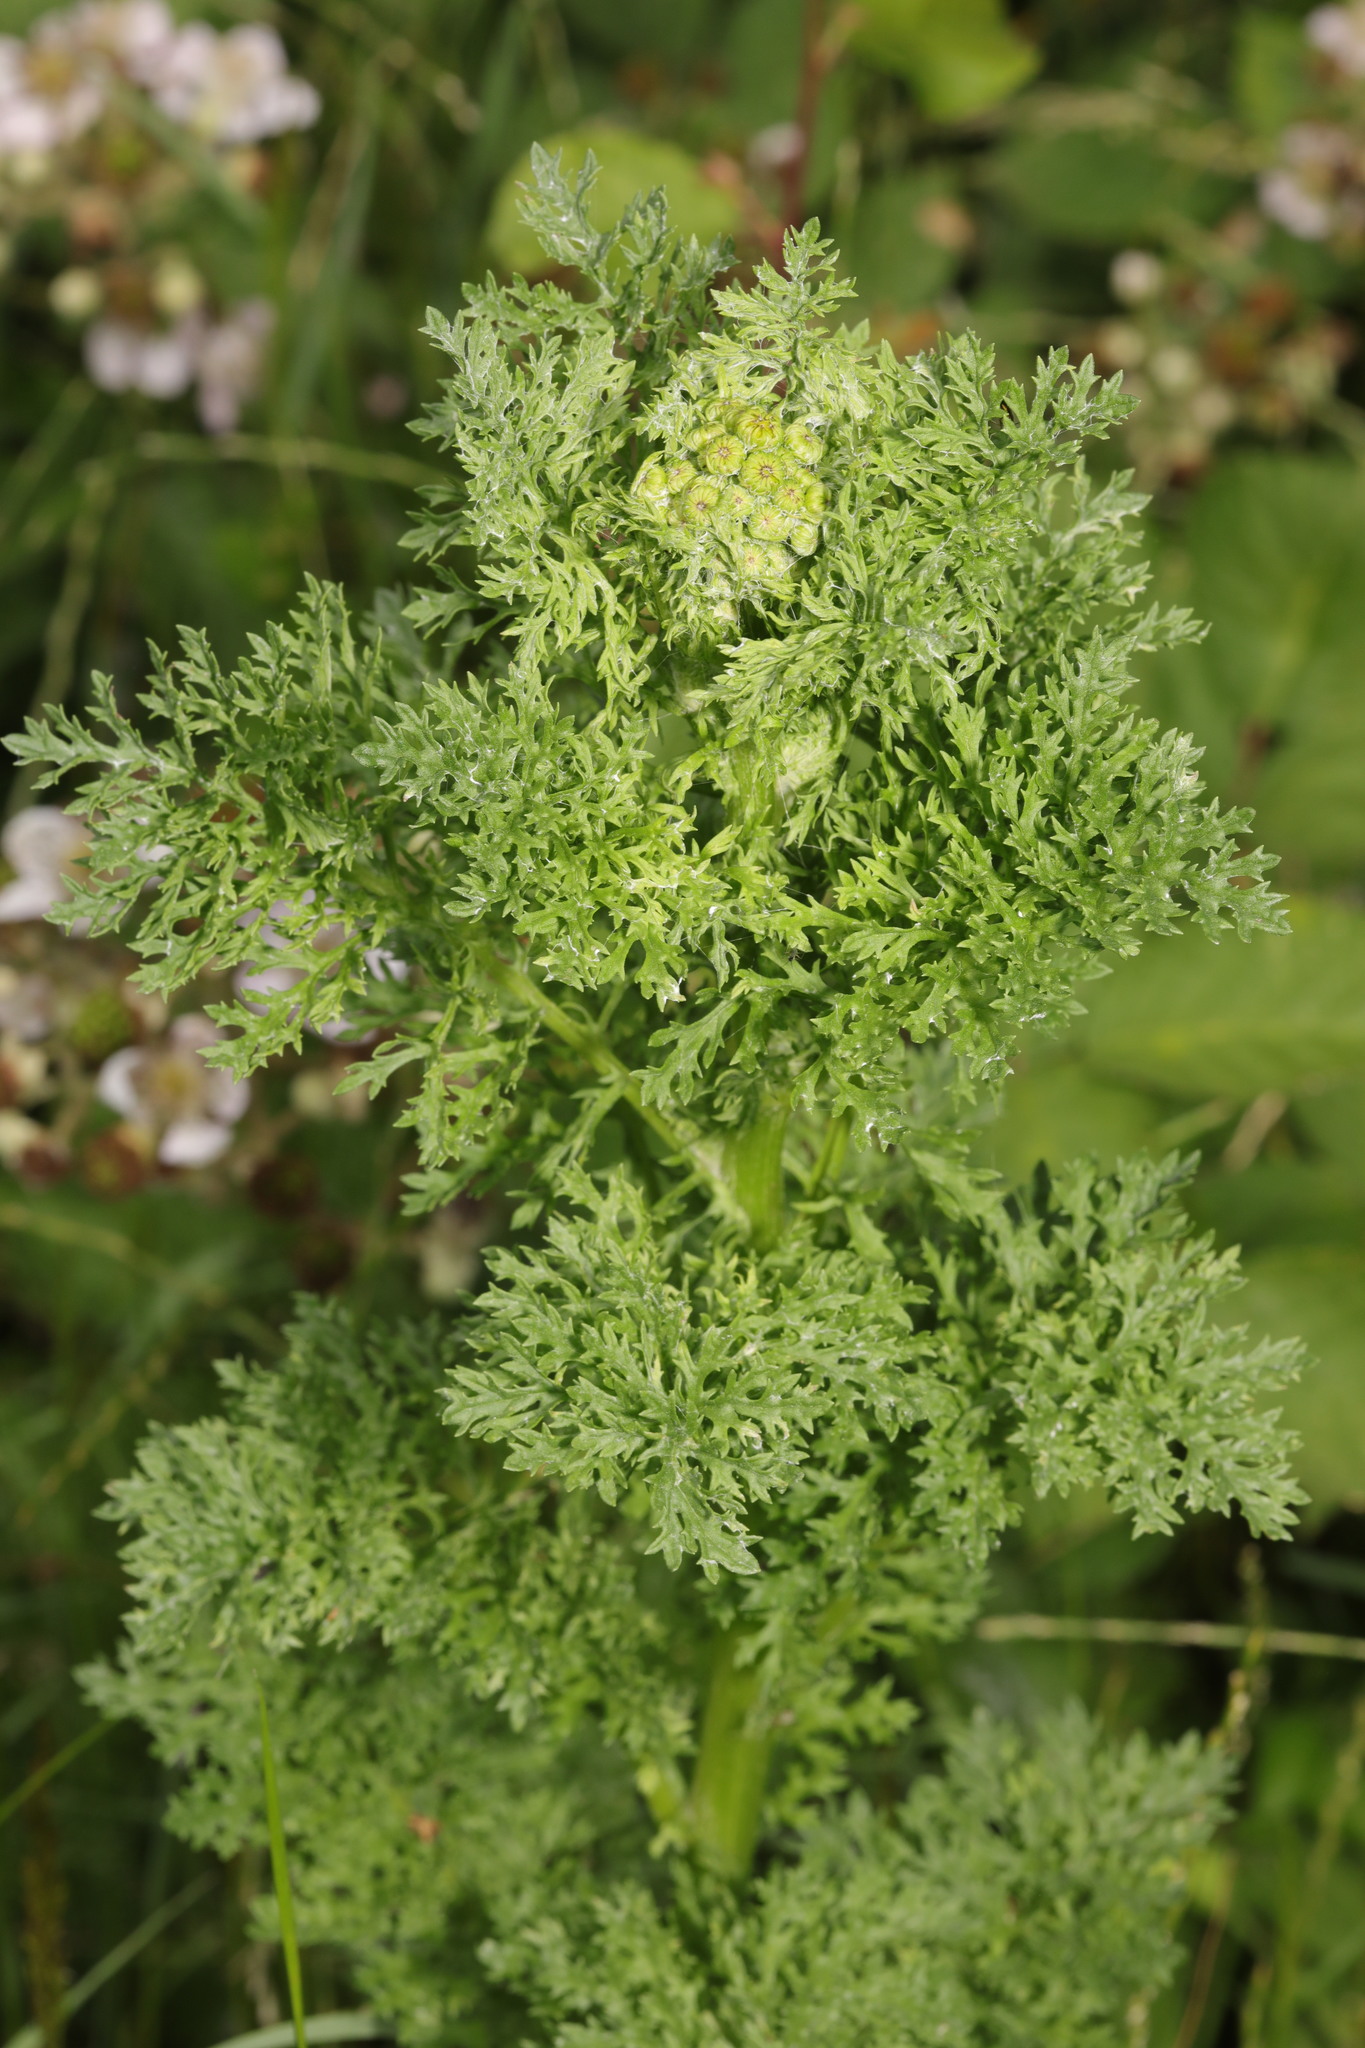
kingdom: Plantae
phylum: Tracheophyta
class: Magnoliopsida
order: Asterales
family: Asteraceae
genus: Jacobaea
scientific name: Jacobaea vulgaris
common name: Stinking willie
